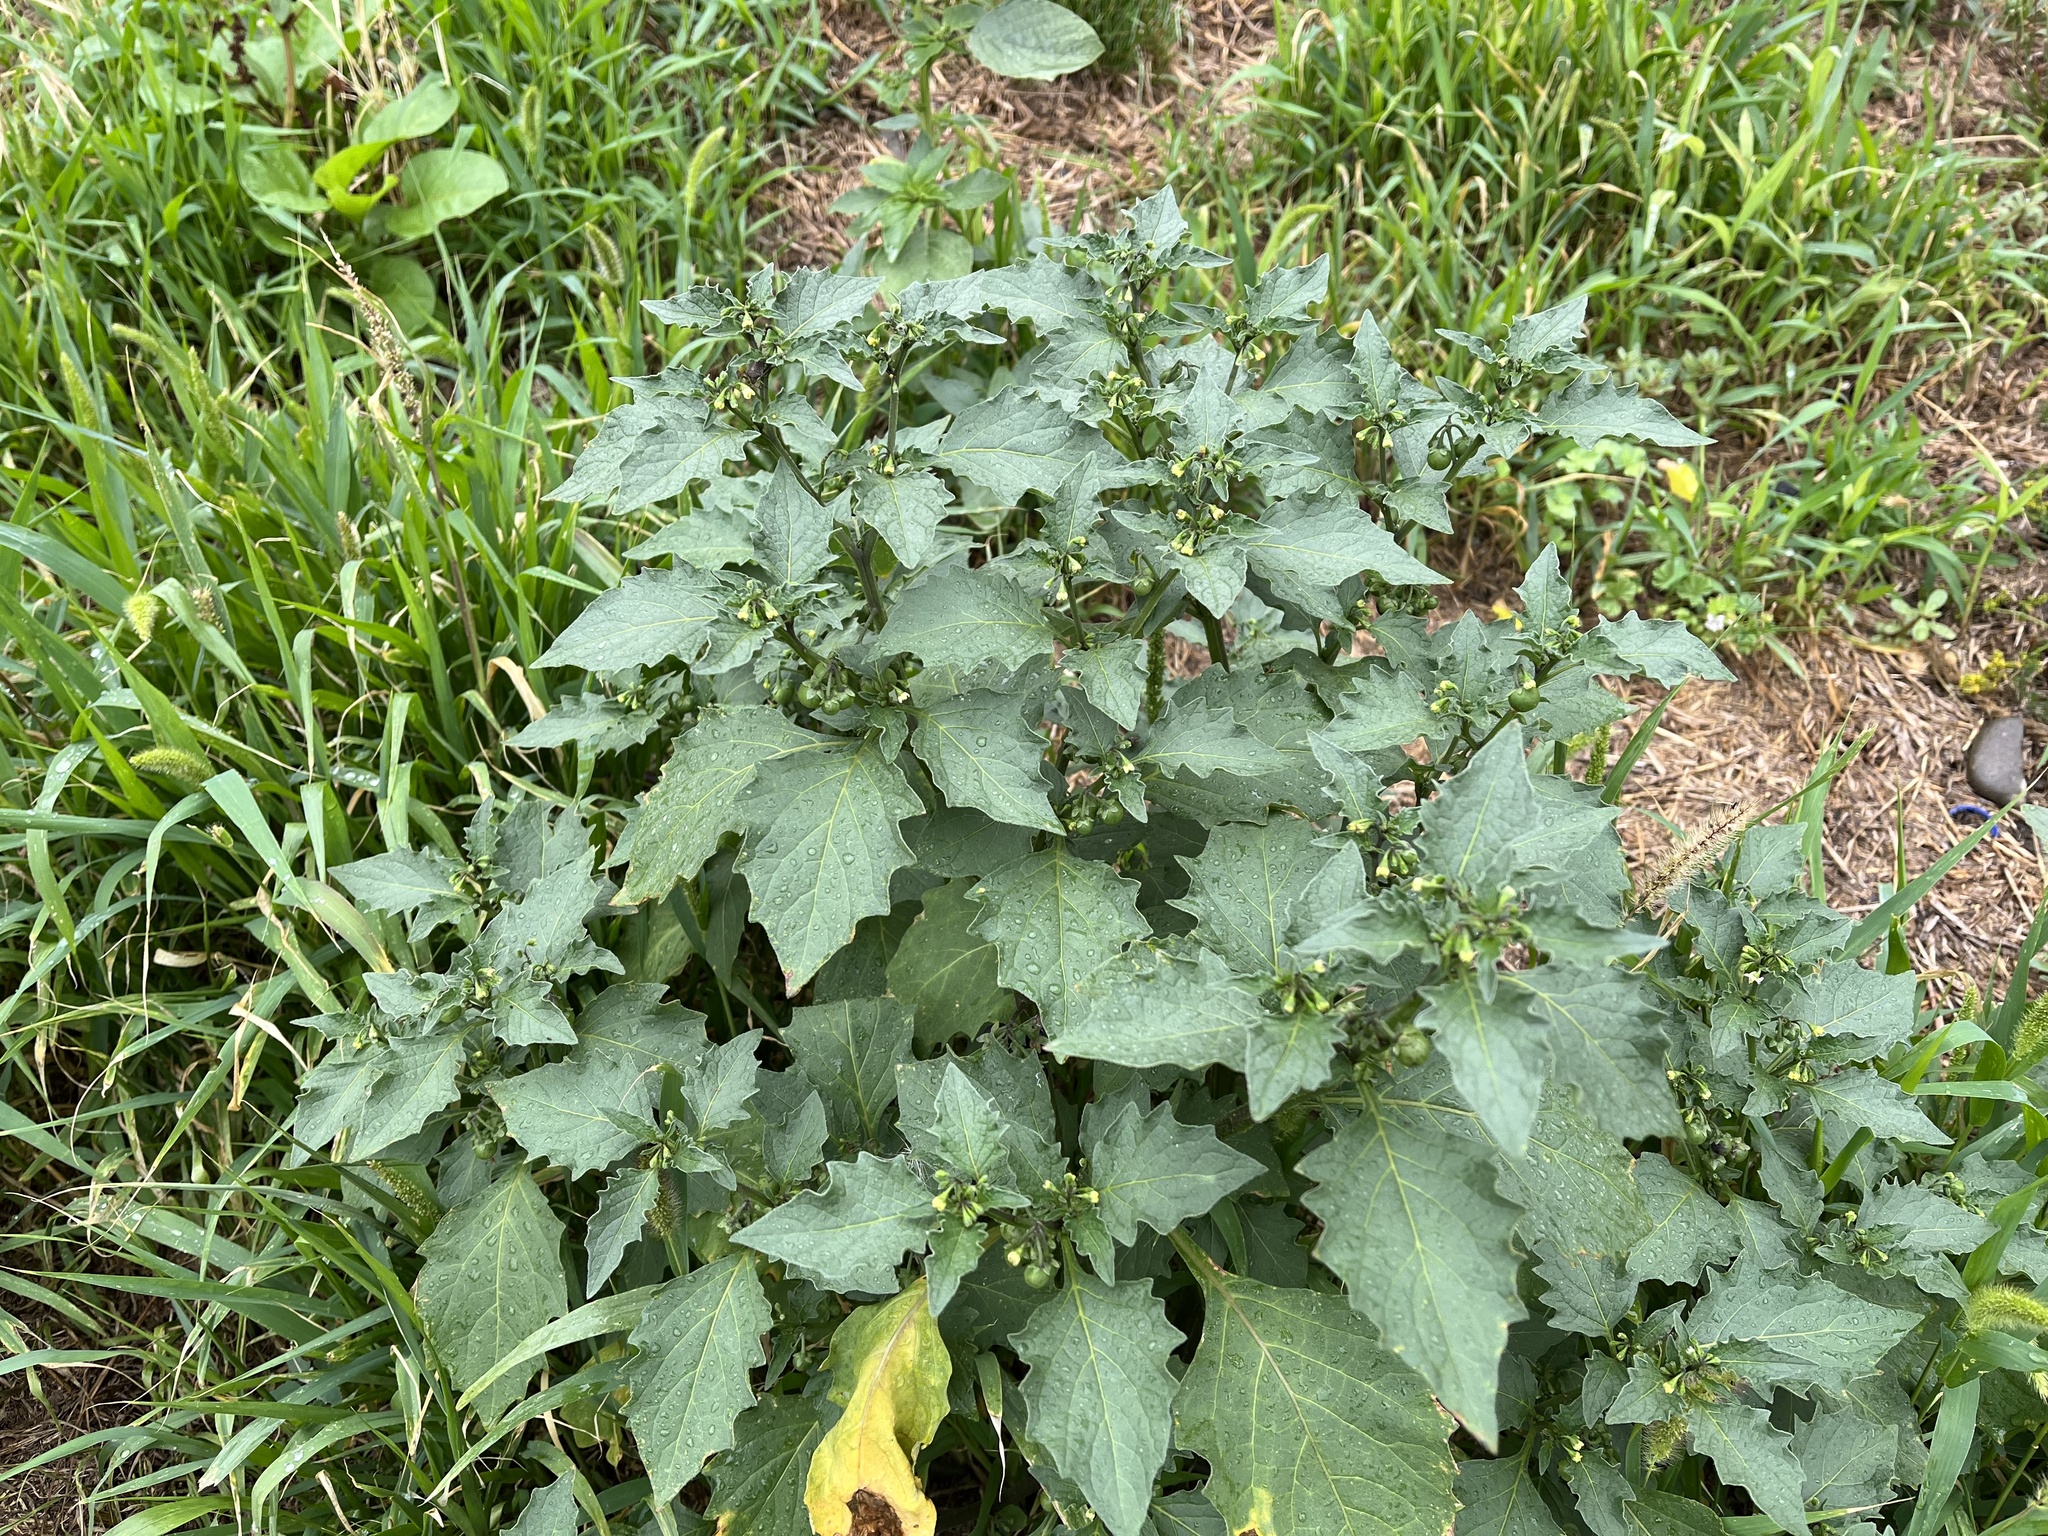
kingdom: Plantae
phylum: Tracheophyta
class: Magnoliopsida
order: Solanales
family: Solanaceae
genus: Solanum
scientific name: Solanum nigrum
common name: Black nightshade
